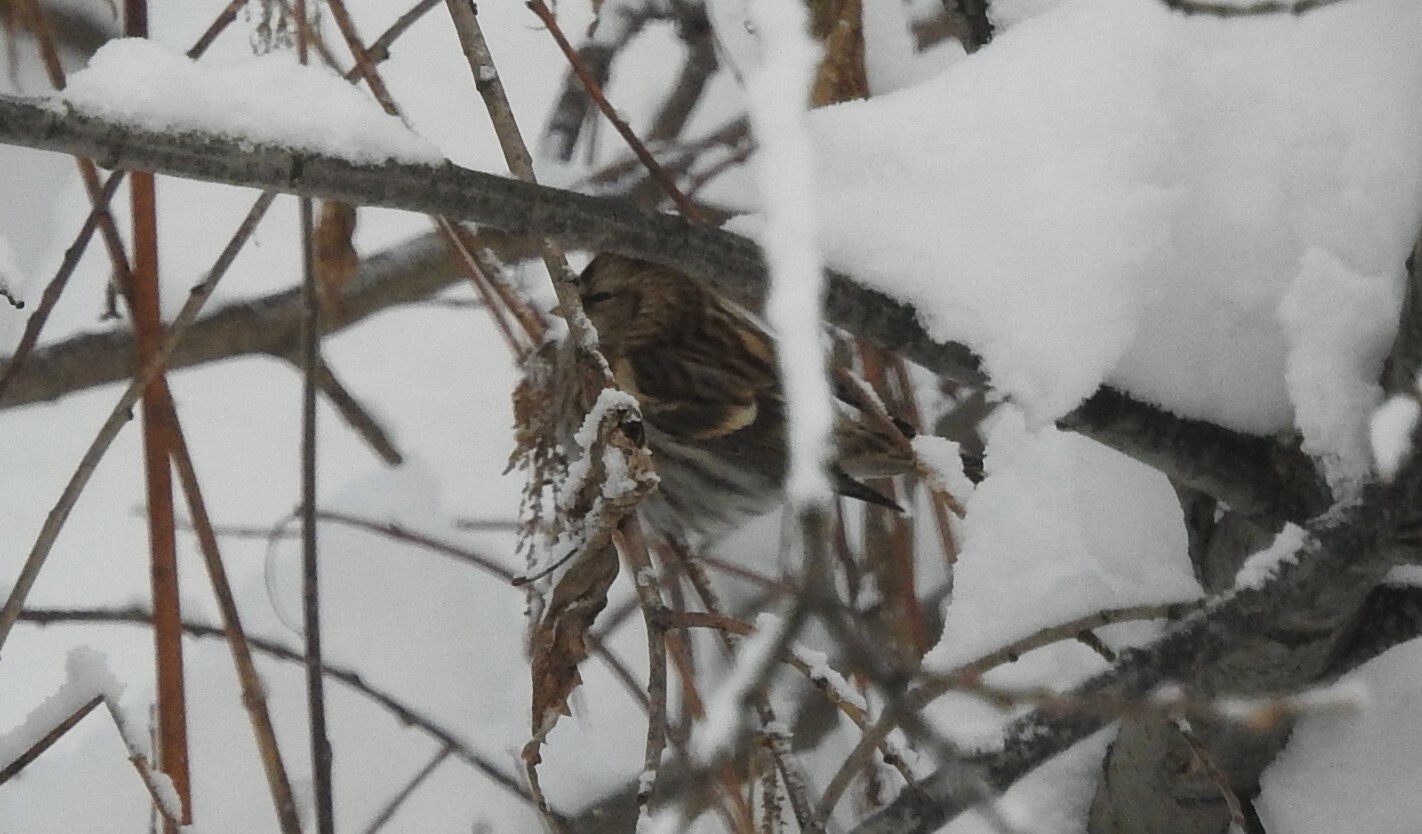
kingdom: Animalia
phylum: Chordata
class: Aves
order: Passeriformes
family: Fringillidae
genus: Acanthis
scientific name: Acanthis flammea
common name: Common redpoll
